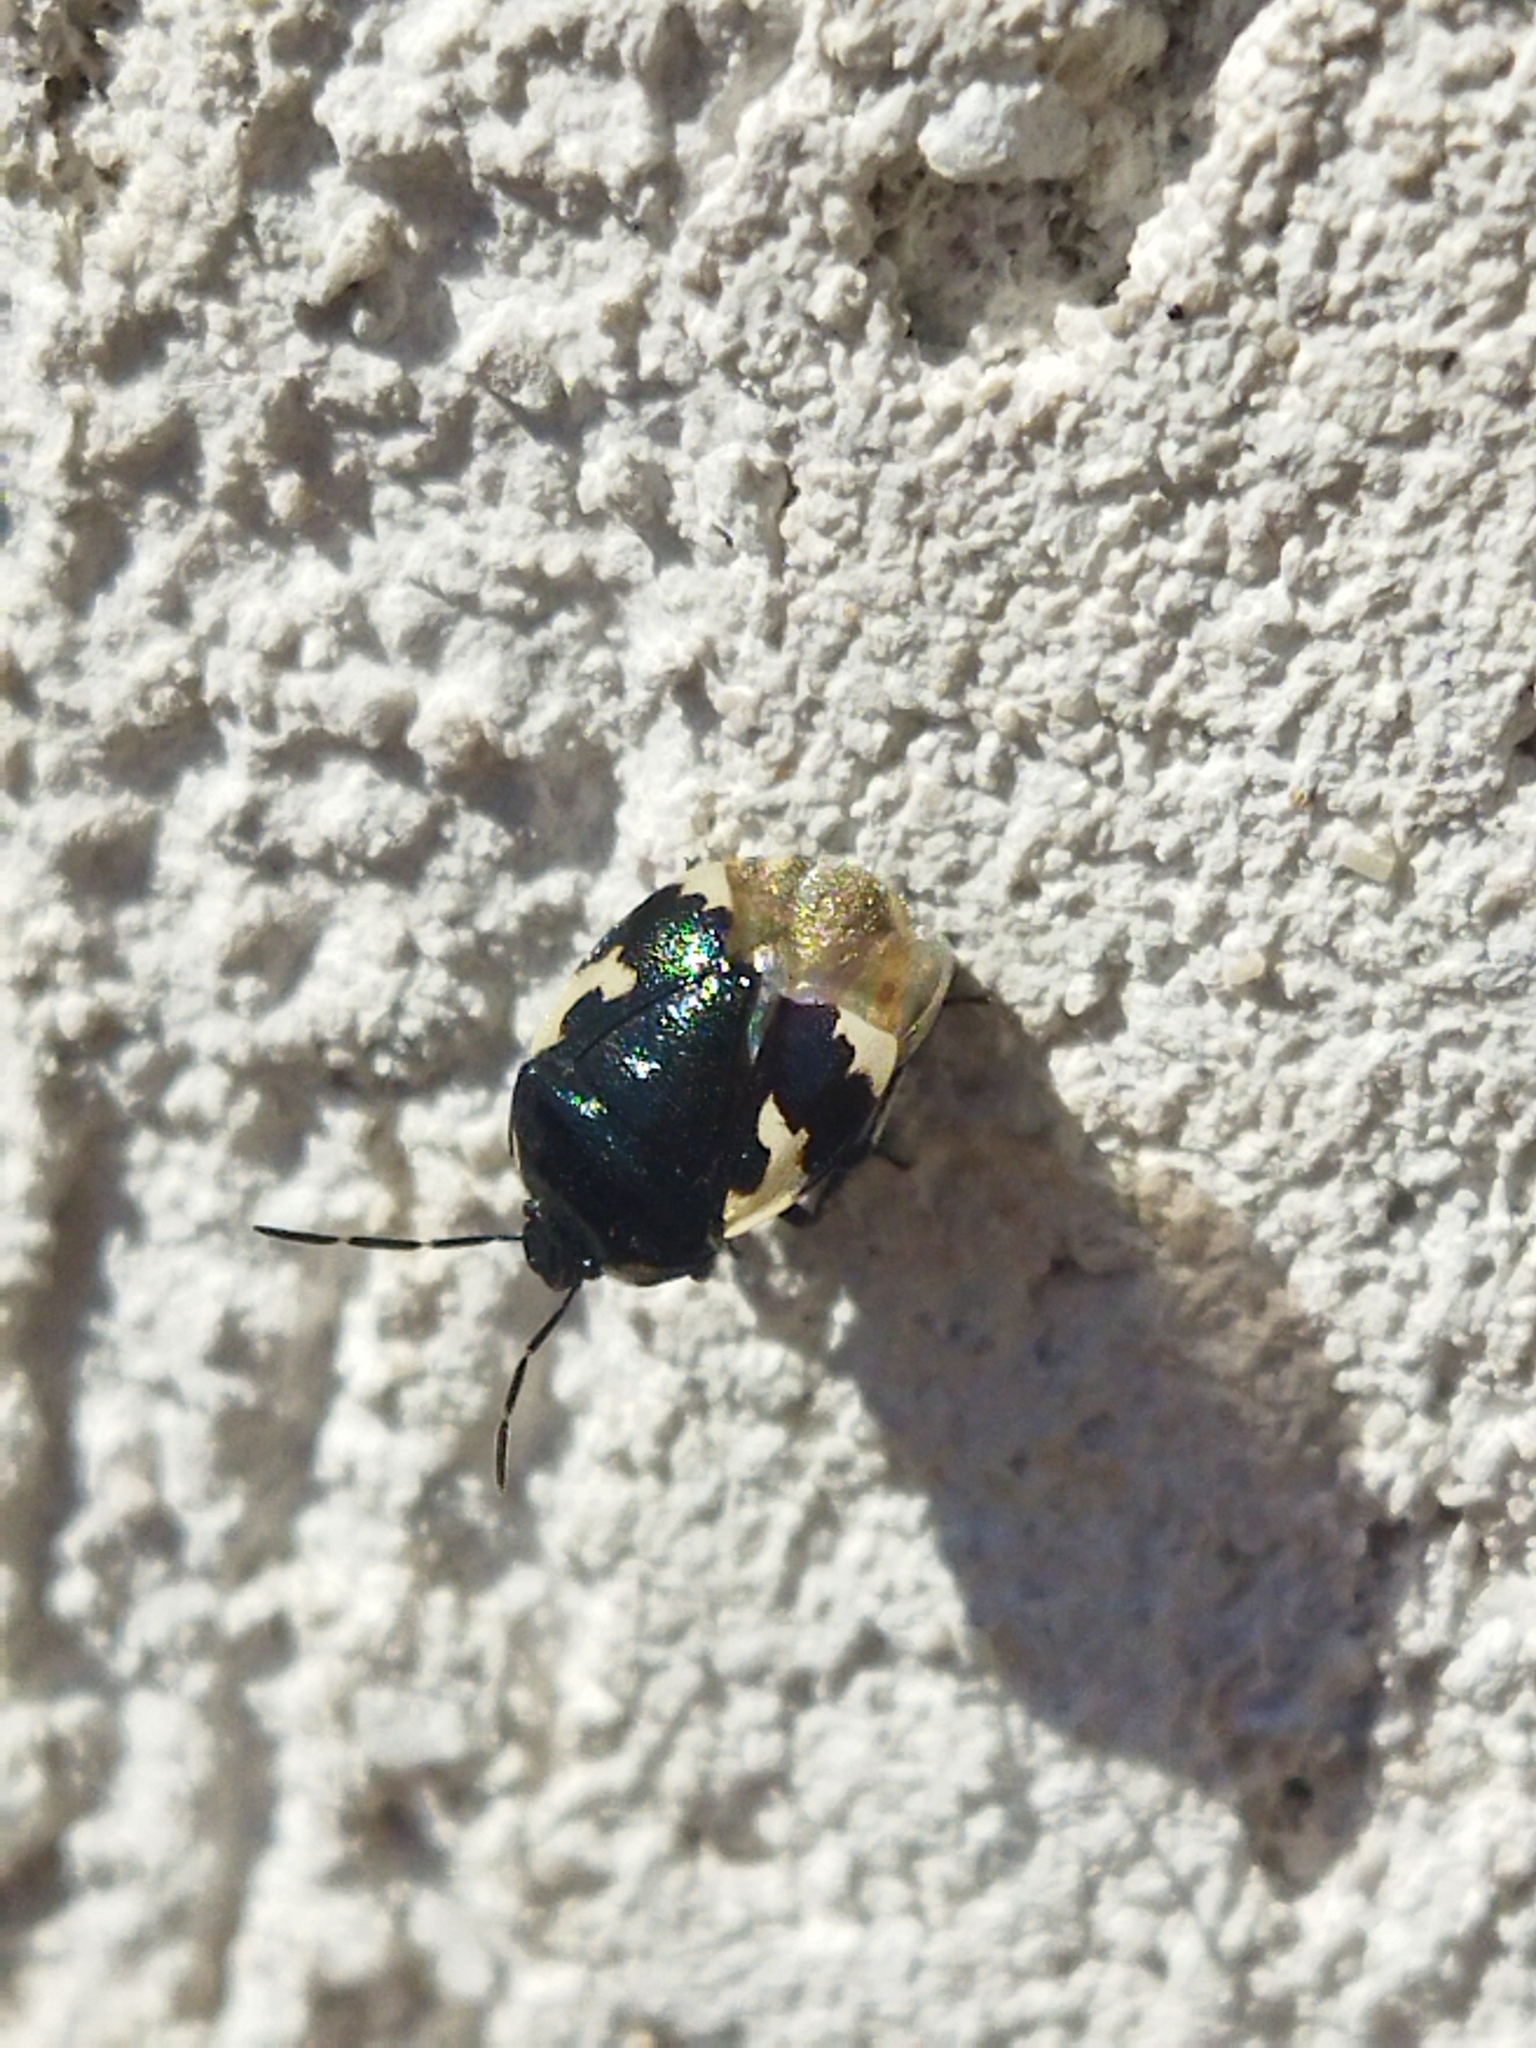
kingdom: Animalia
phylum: Arthropoda
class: Insecta
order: Hemiptera
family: Cydnidae
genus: Tritomegas
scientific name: Tritomegas bicolor
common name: Pied shieldbug
